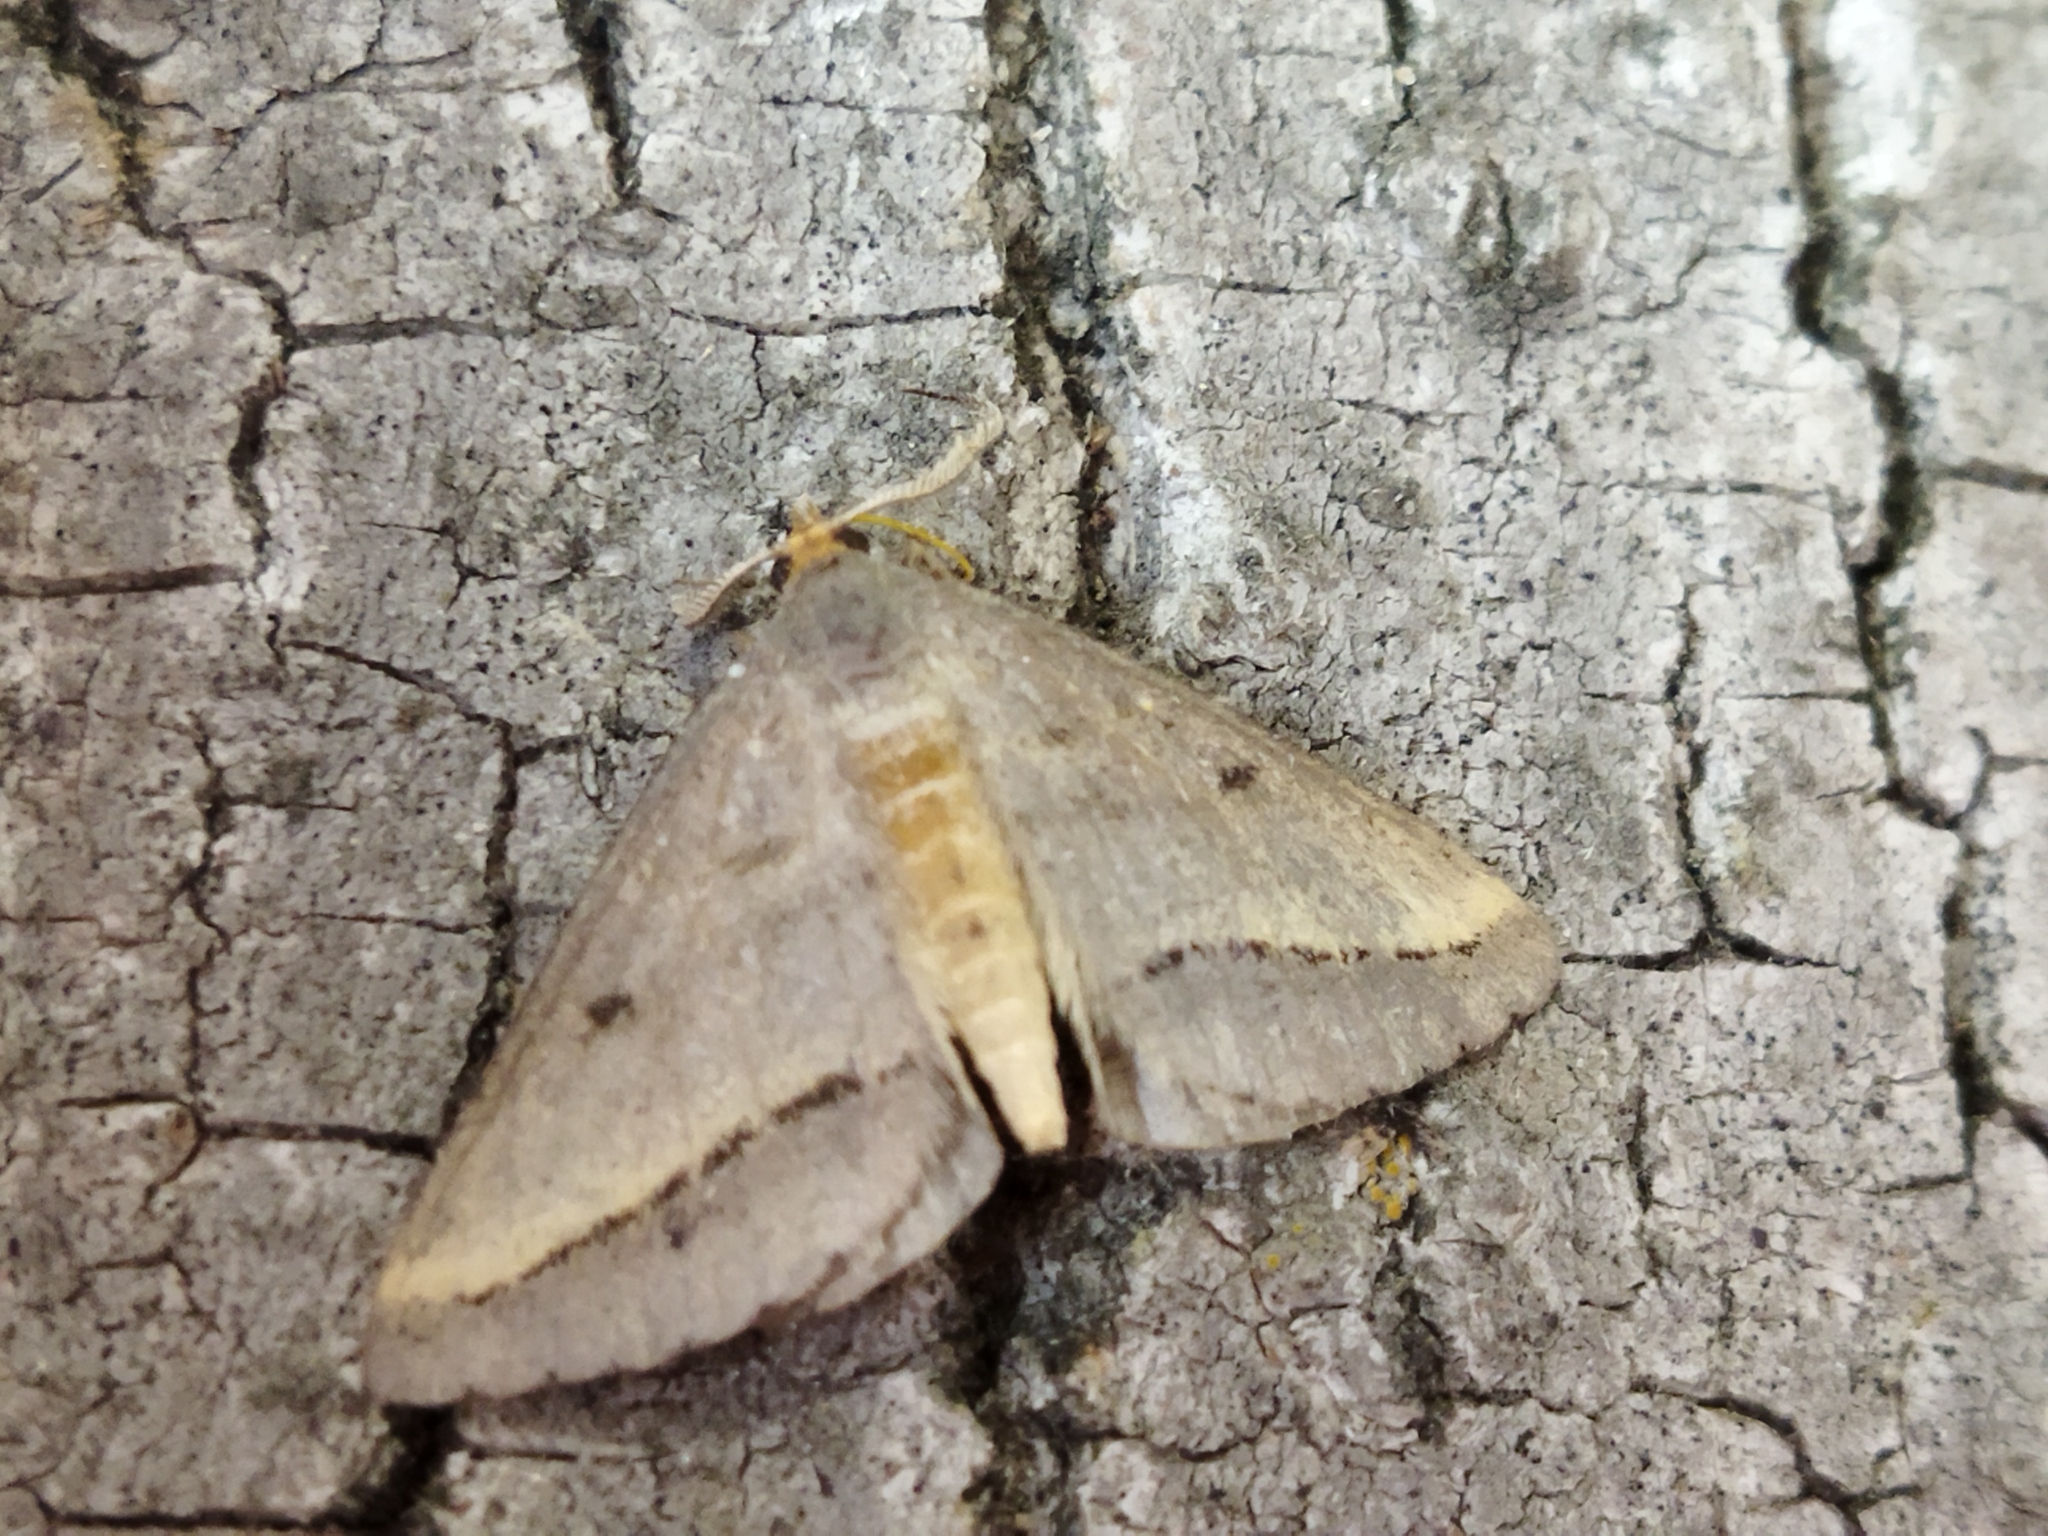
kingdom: Animalia
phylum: Arthropoda
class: Insecta
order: Lepidoptera
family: Geometridae
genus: Tephrina
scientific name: Tephrina arenacearia
